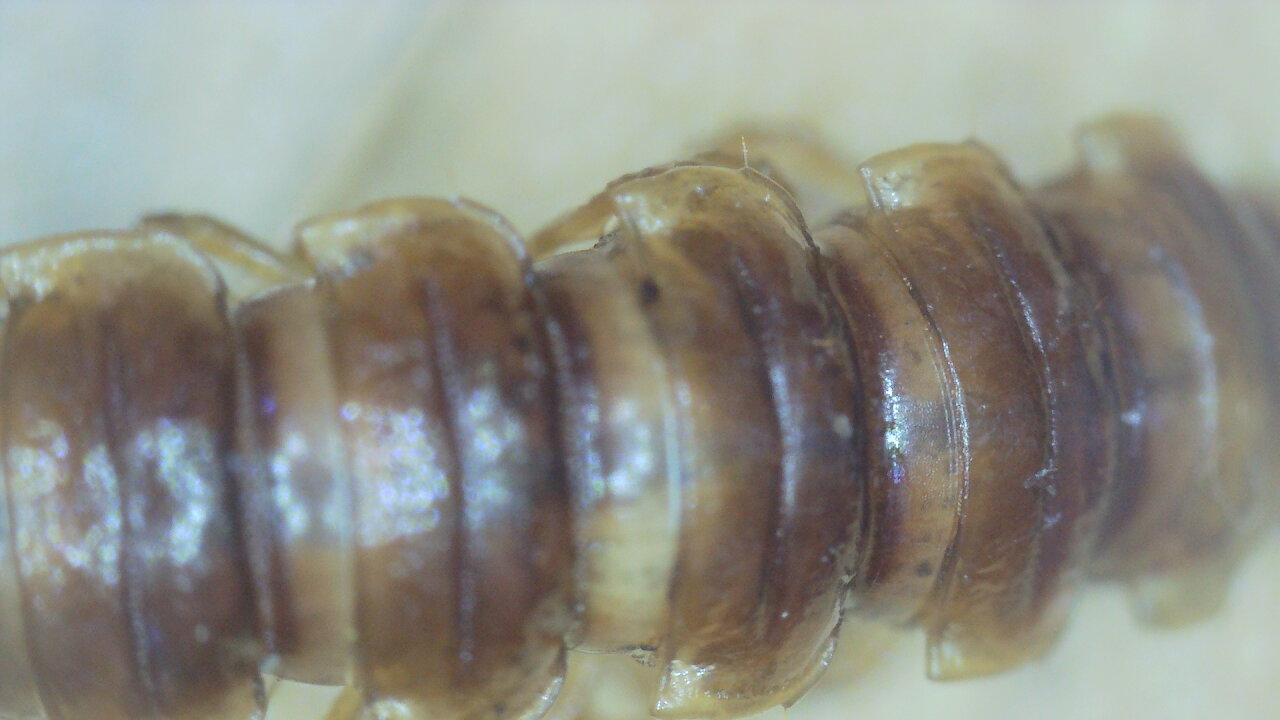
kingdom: Animalia
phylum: Arthropoda
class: Diplopoda
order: Polydesmida
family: Paradoxosomatidae
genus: Oxidus
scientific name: Oxidus gracilis
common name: Greenhouse millipede
